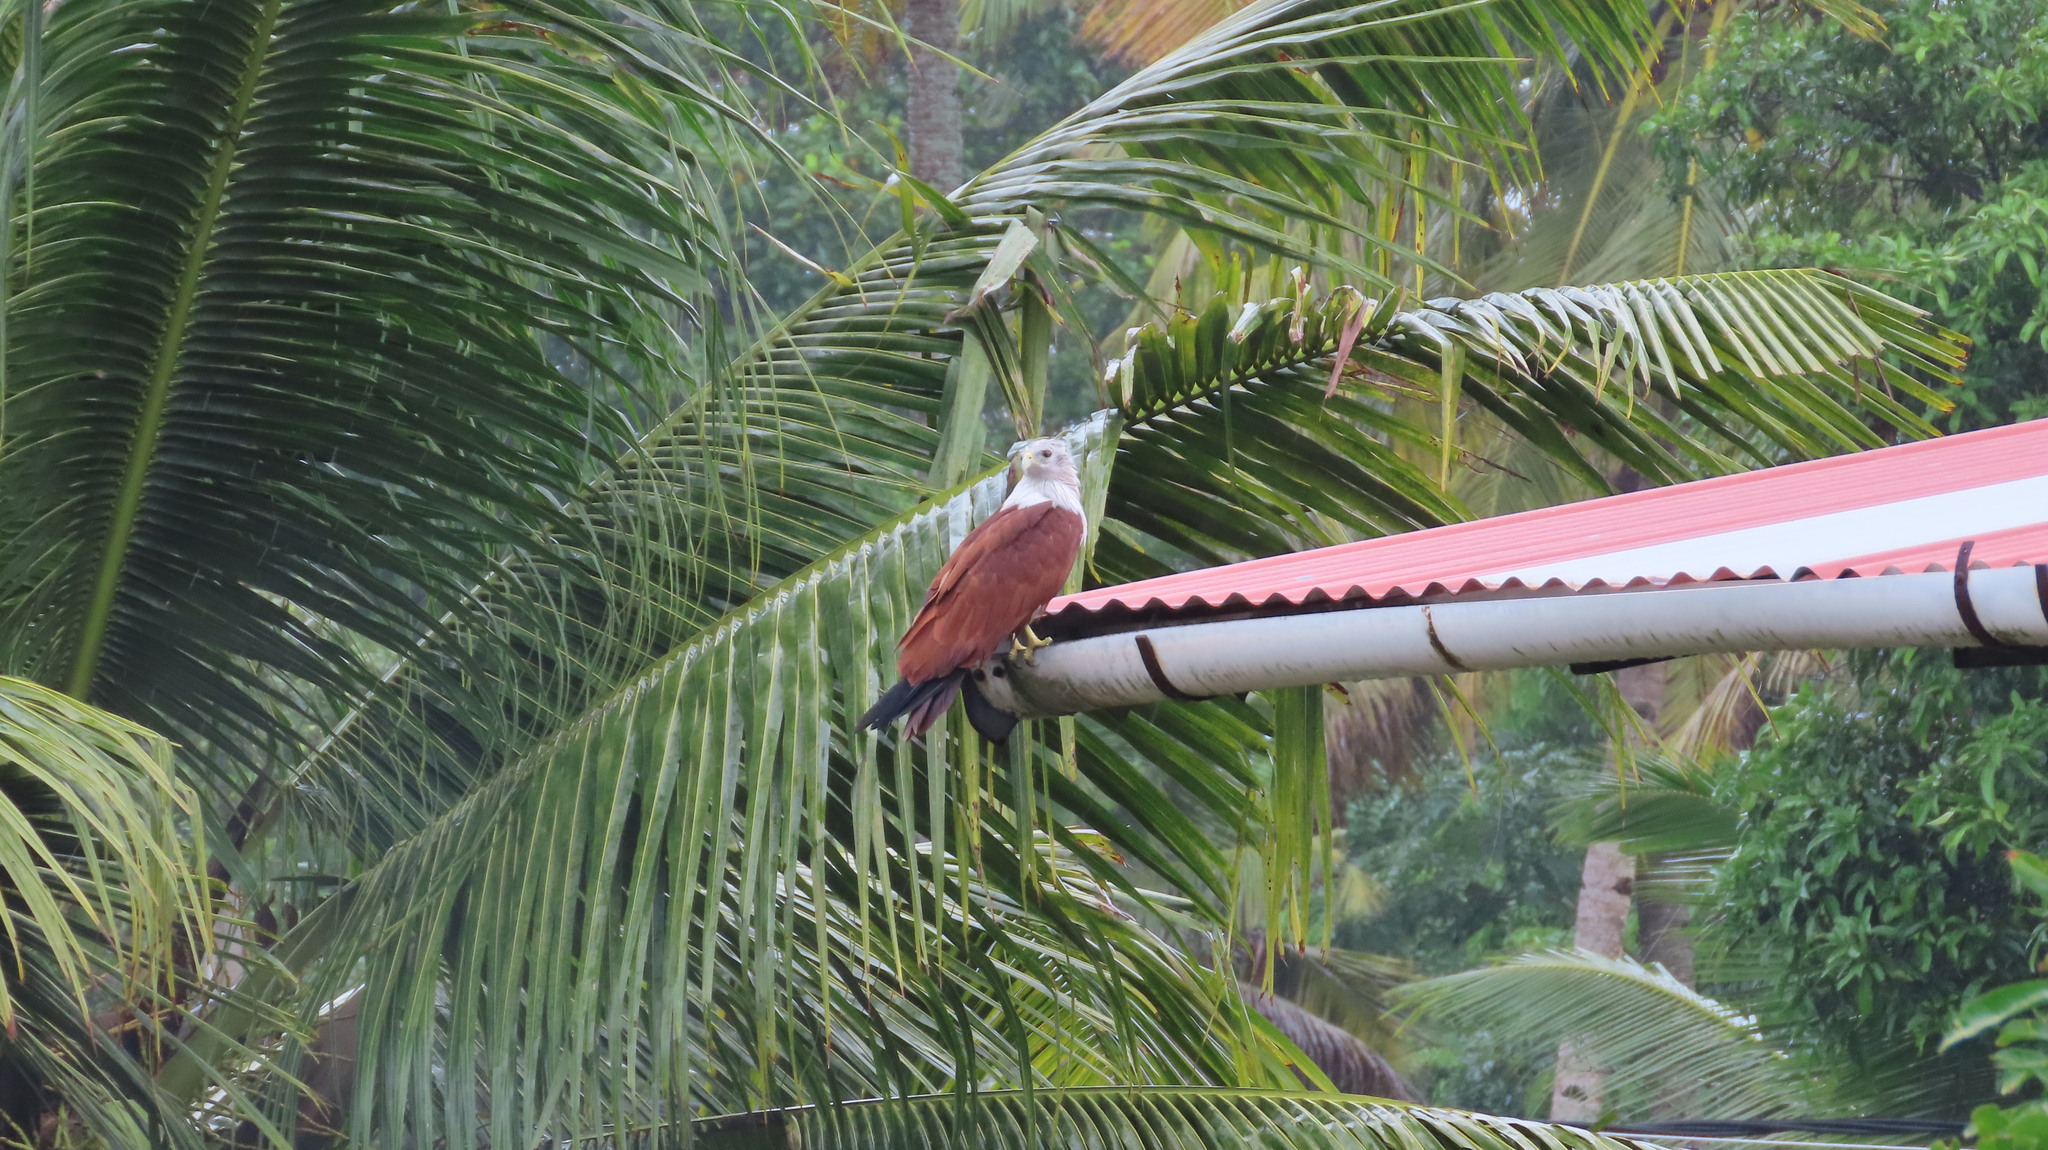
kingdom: Animalia
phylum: Chordata
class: Aves
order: Accipitriformes
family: Accipitridae
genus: Haliastur
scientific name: Haliastur indus
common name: Brahminy kite
